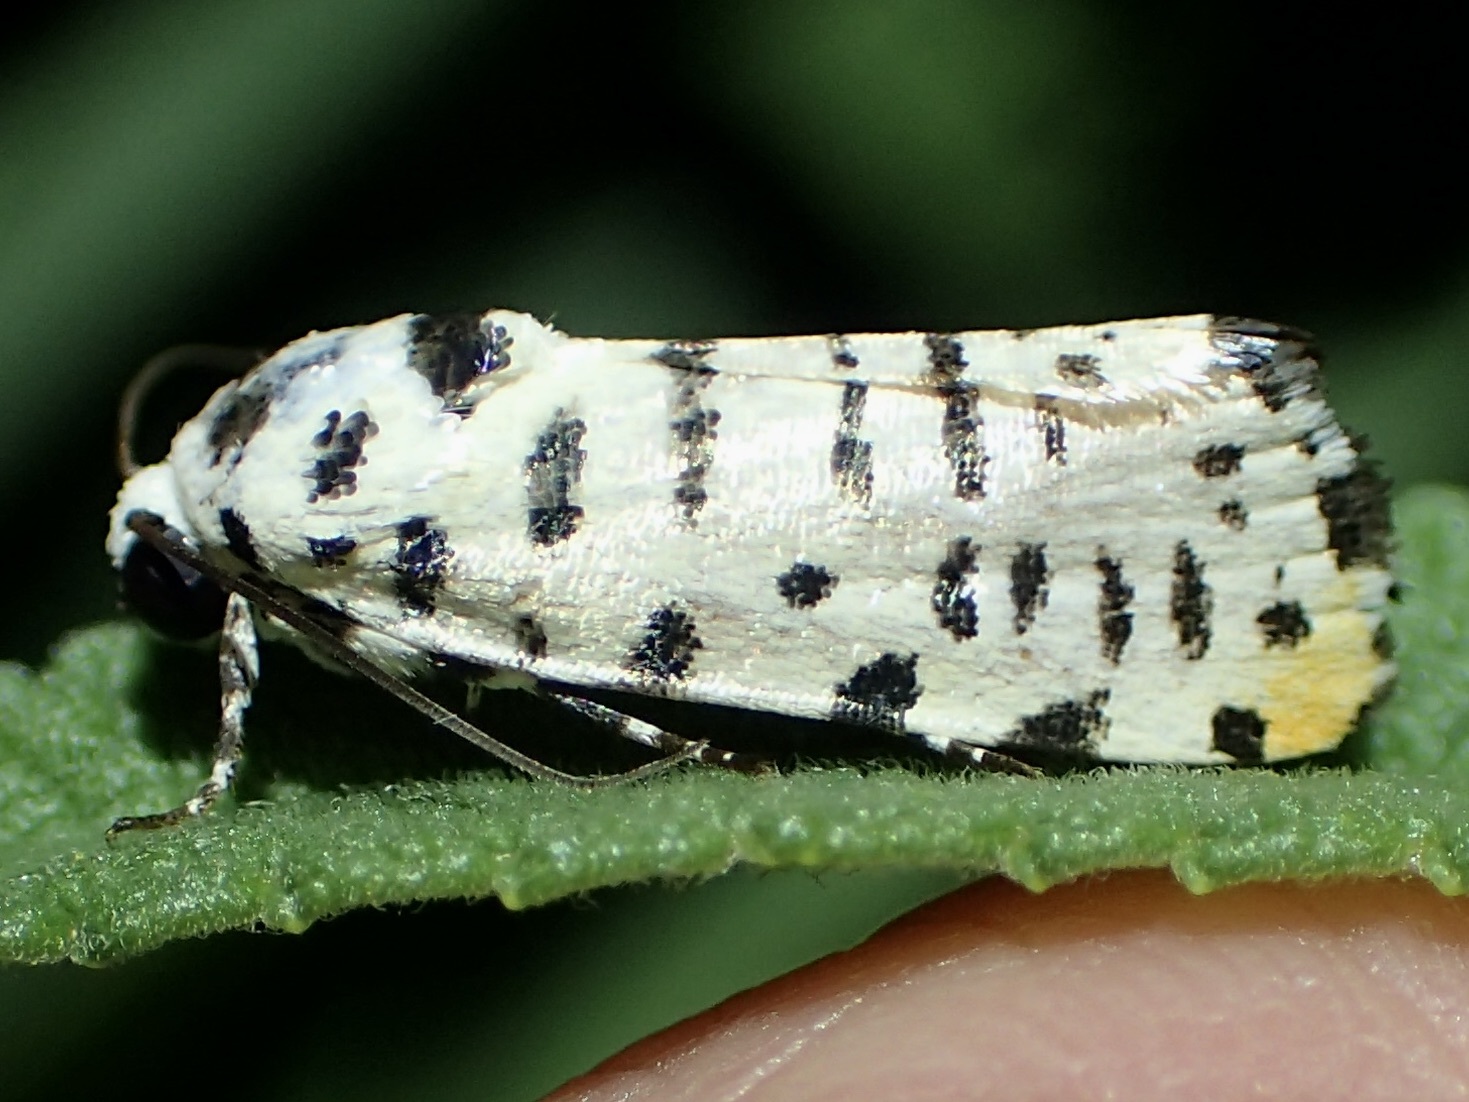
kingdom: Animalia
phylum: Arthropoda
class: Insecta
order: Lepidoptera
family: Noctuidae
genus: Acontia
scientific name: Acontia idella
